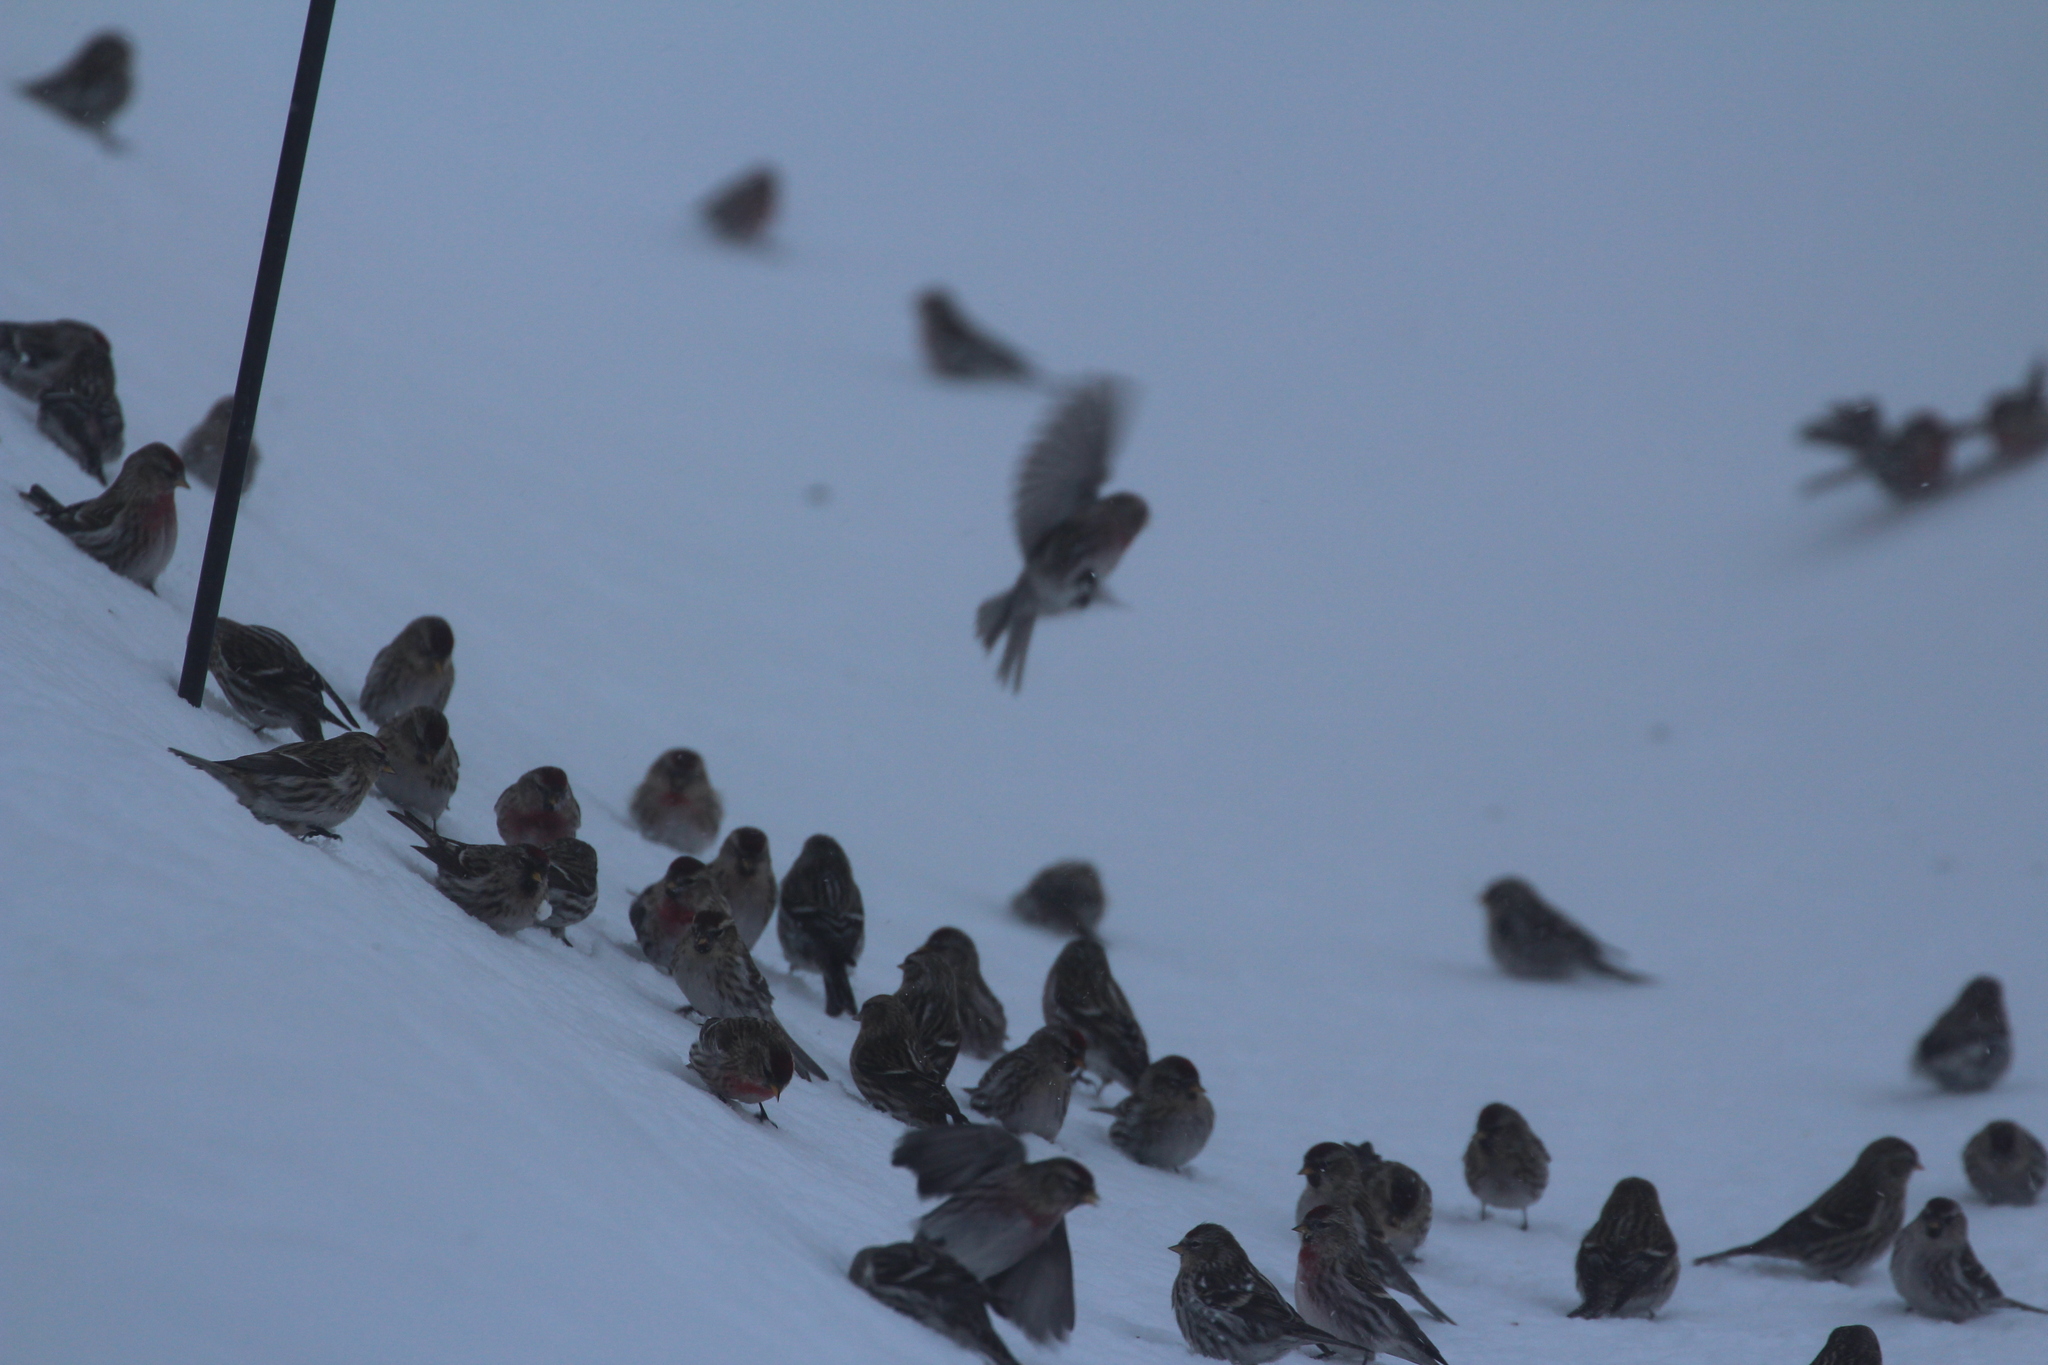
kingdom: Animalia
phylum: Chordata
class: Aves
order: Passeriformes
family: Fringillidae
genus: Acanthis
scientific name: Acanthis flammea
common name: Common redpoll
